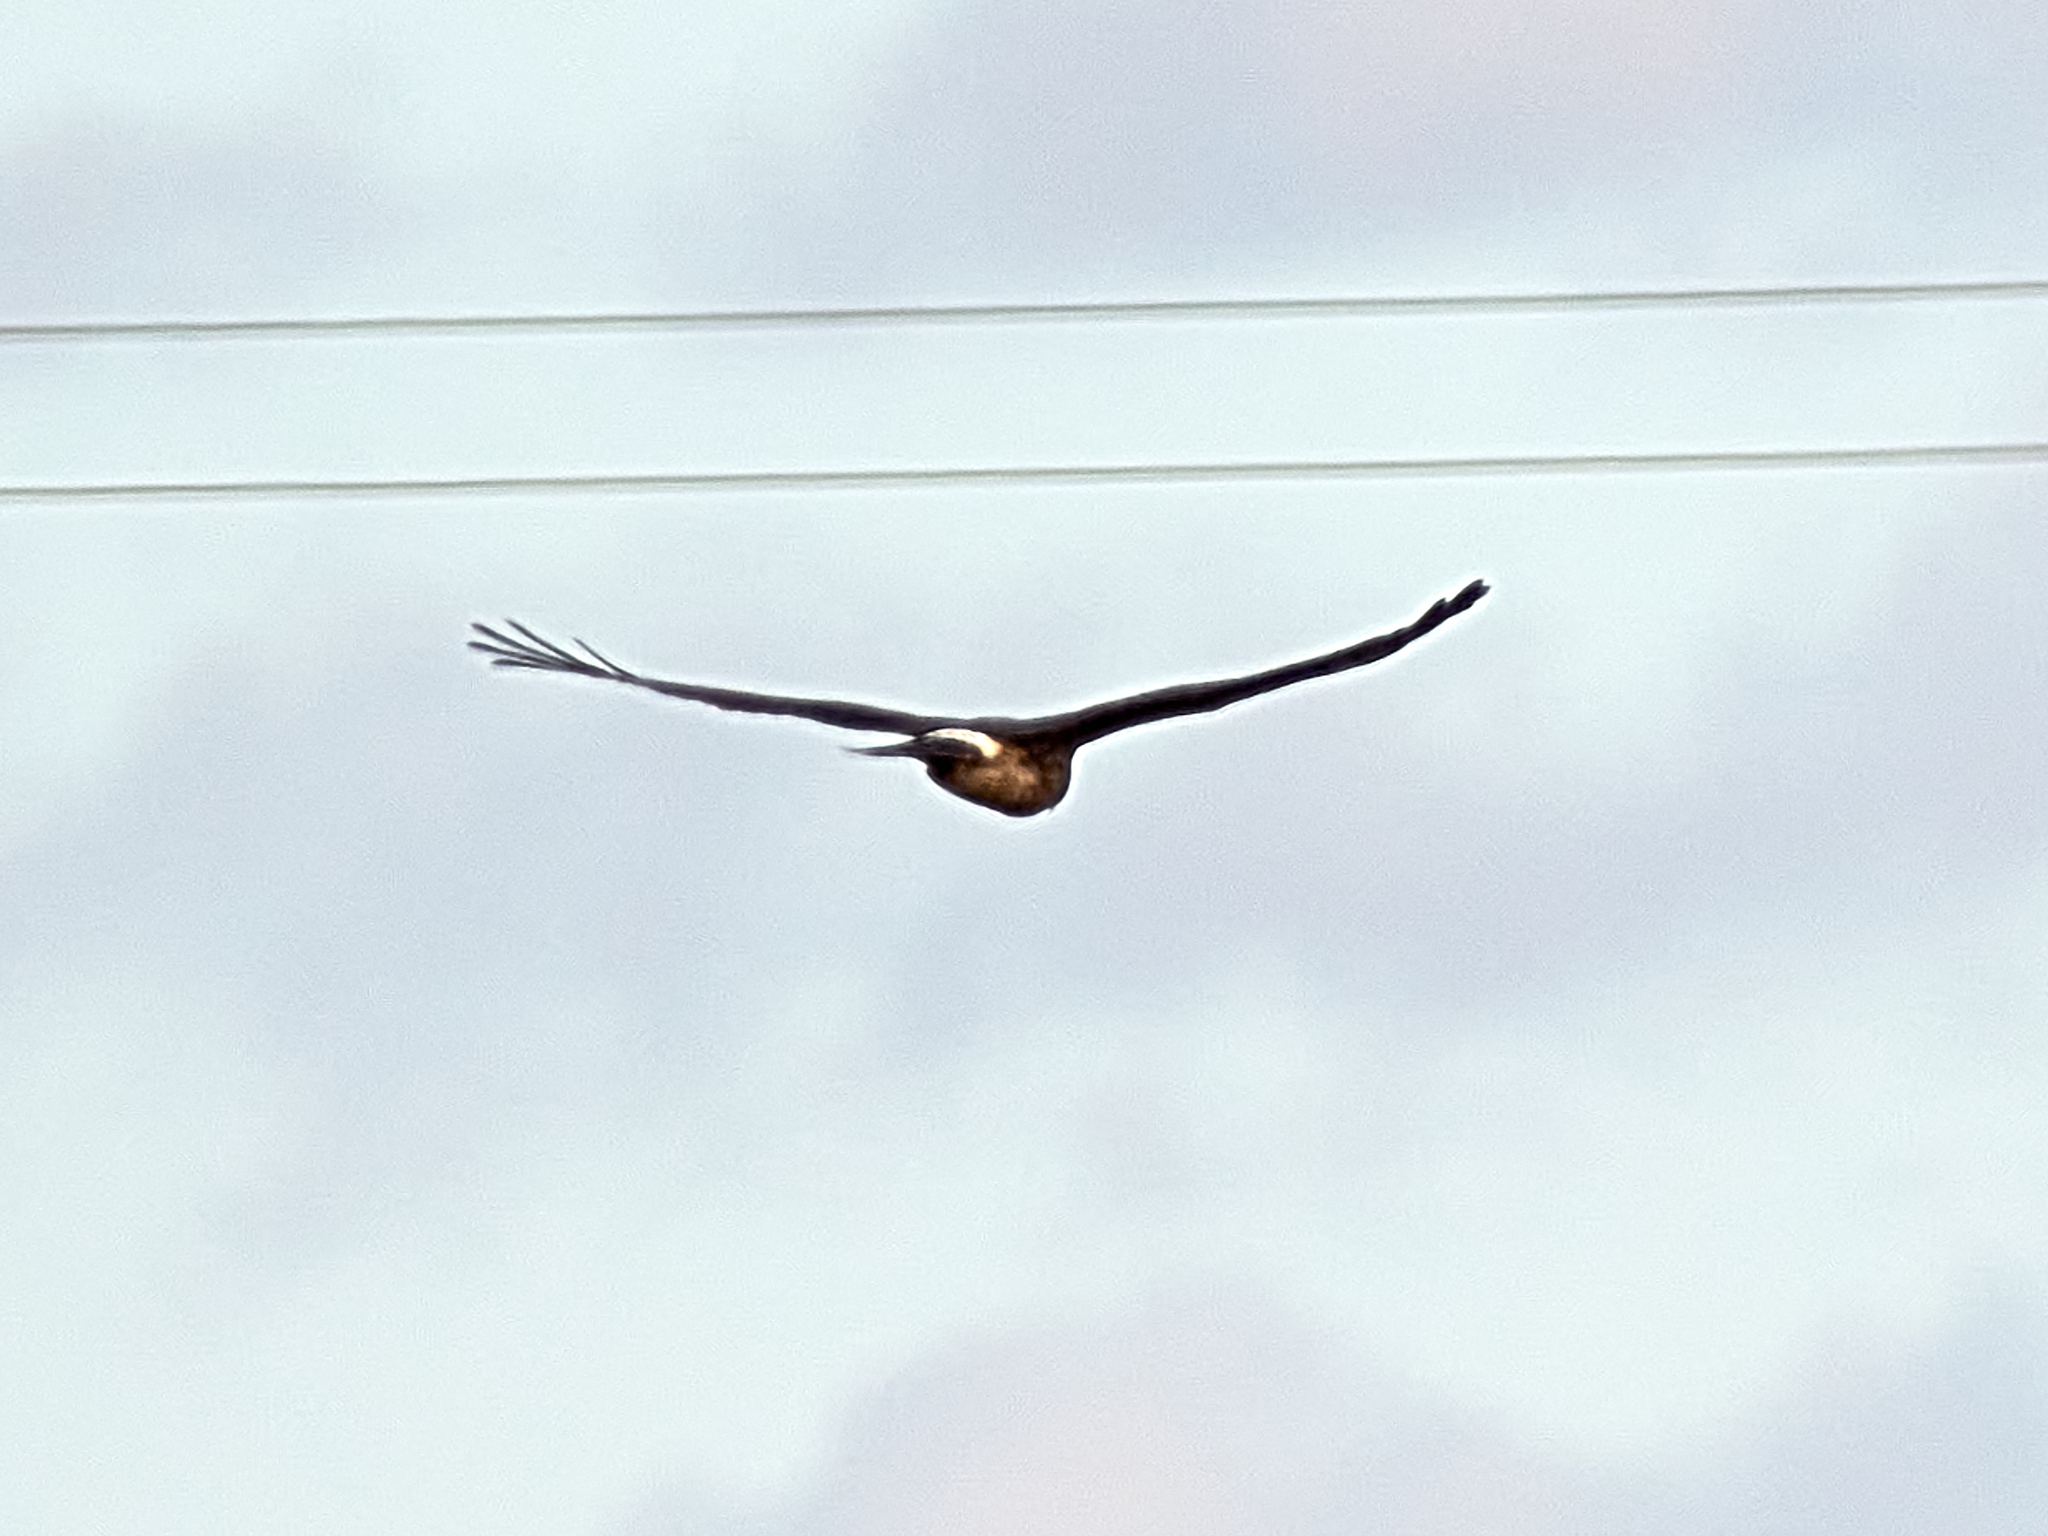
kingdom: Animalia
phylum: Chordata
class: Aves
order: Accipitriformes
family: Accipitridae
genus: Circus
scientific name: Circus cyaneus
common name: Hen harrier
